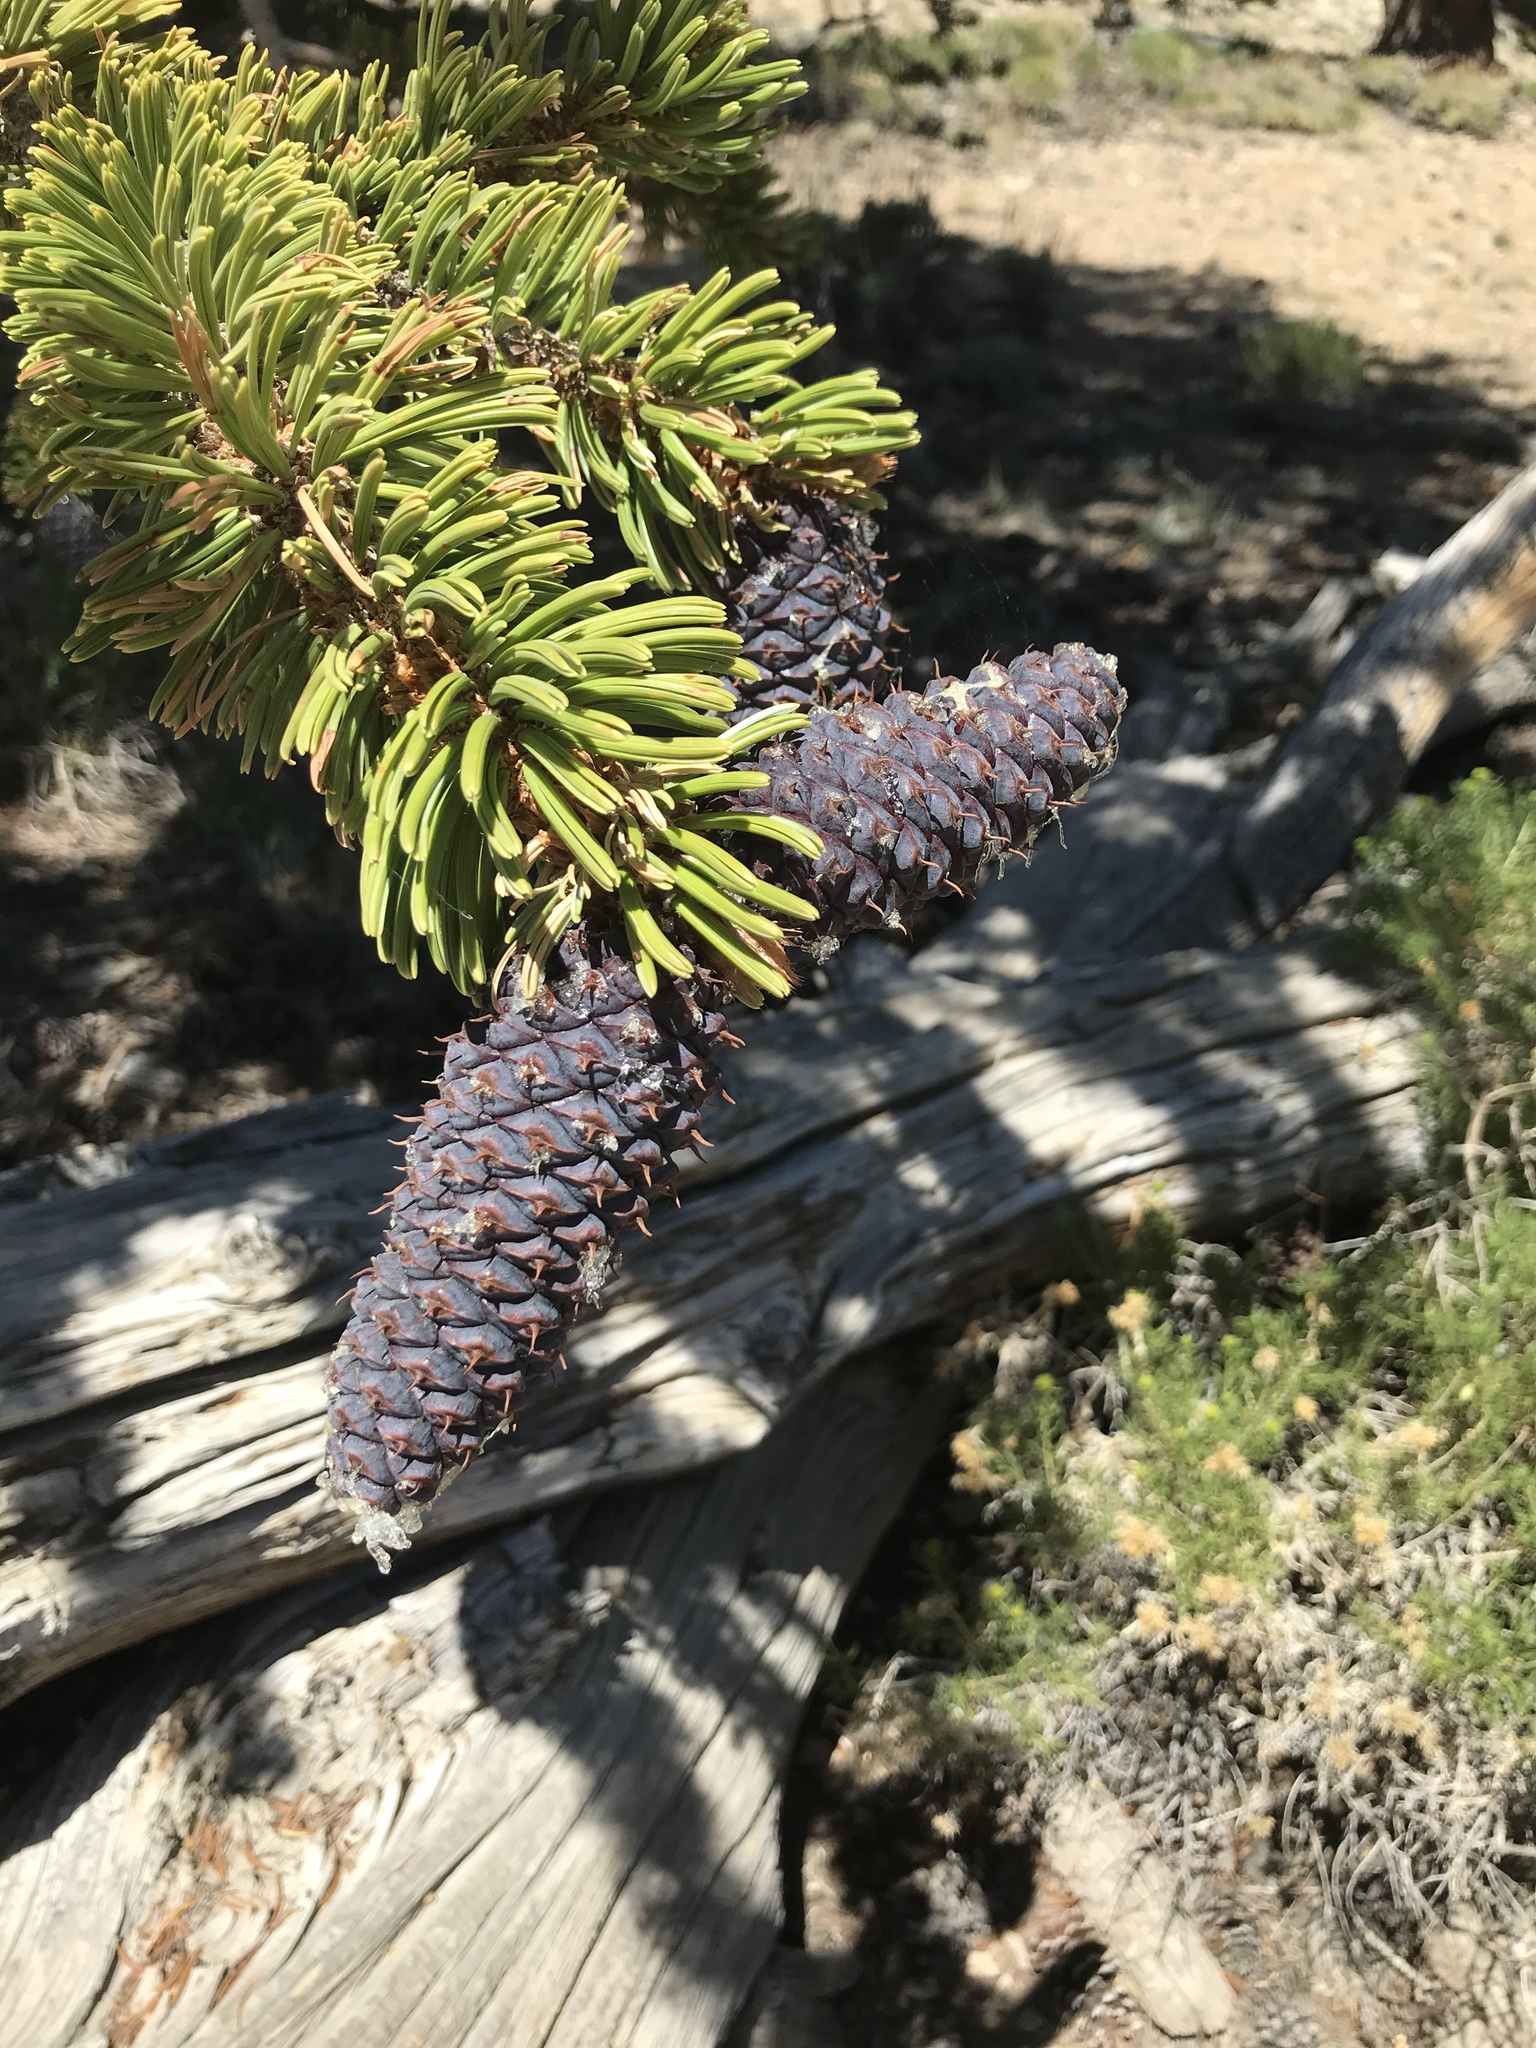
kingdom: Plantae
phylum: Tracheophyta
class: Pinopsida
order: Pinales
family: Pinaceae
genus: Pinus
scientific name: Pinus longaeva
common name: Intermountain bristlecone pine
